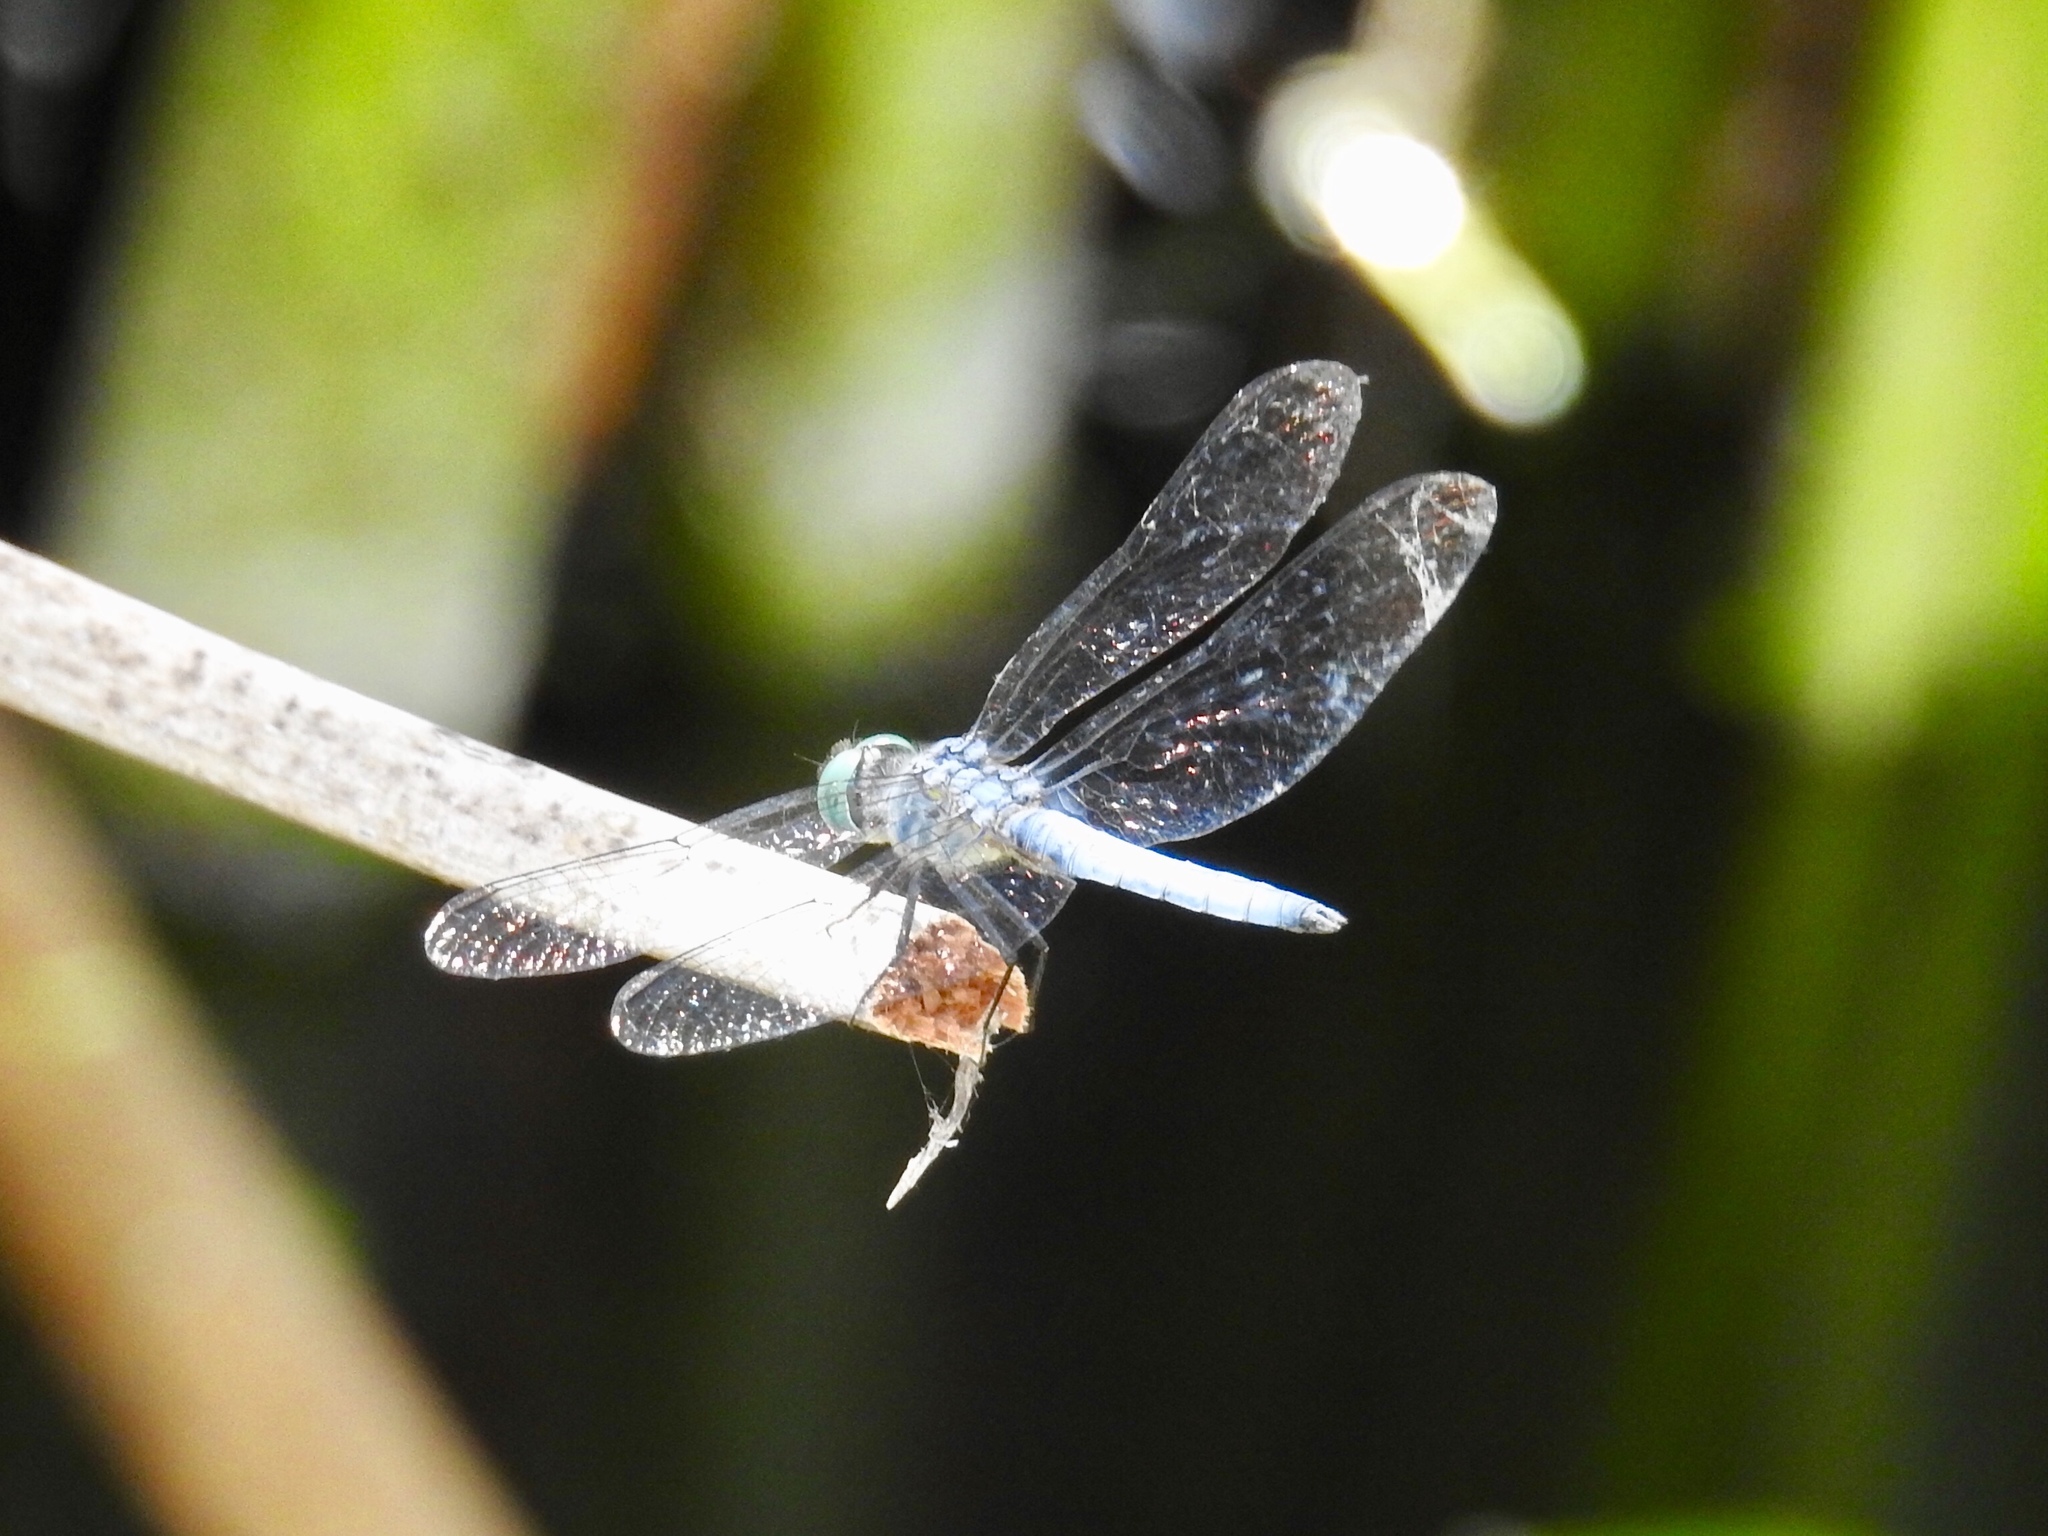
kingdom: Animalia
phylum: Arthropoda
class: Insecta
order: Odonata
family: Libellulidae
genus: Pachydiplax
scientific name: Pachydiplax longipennis
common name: Blue dasher
